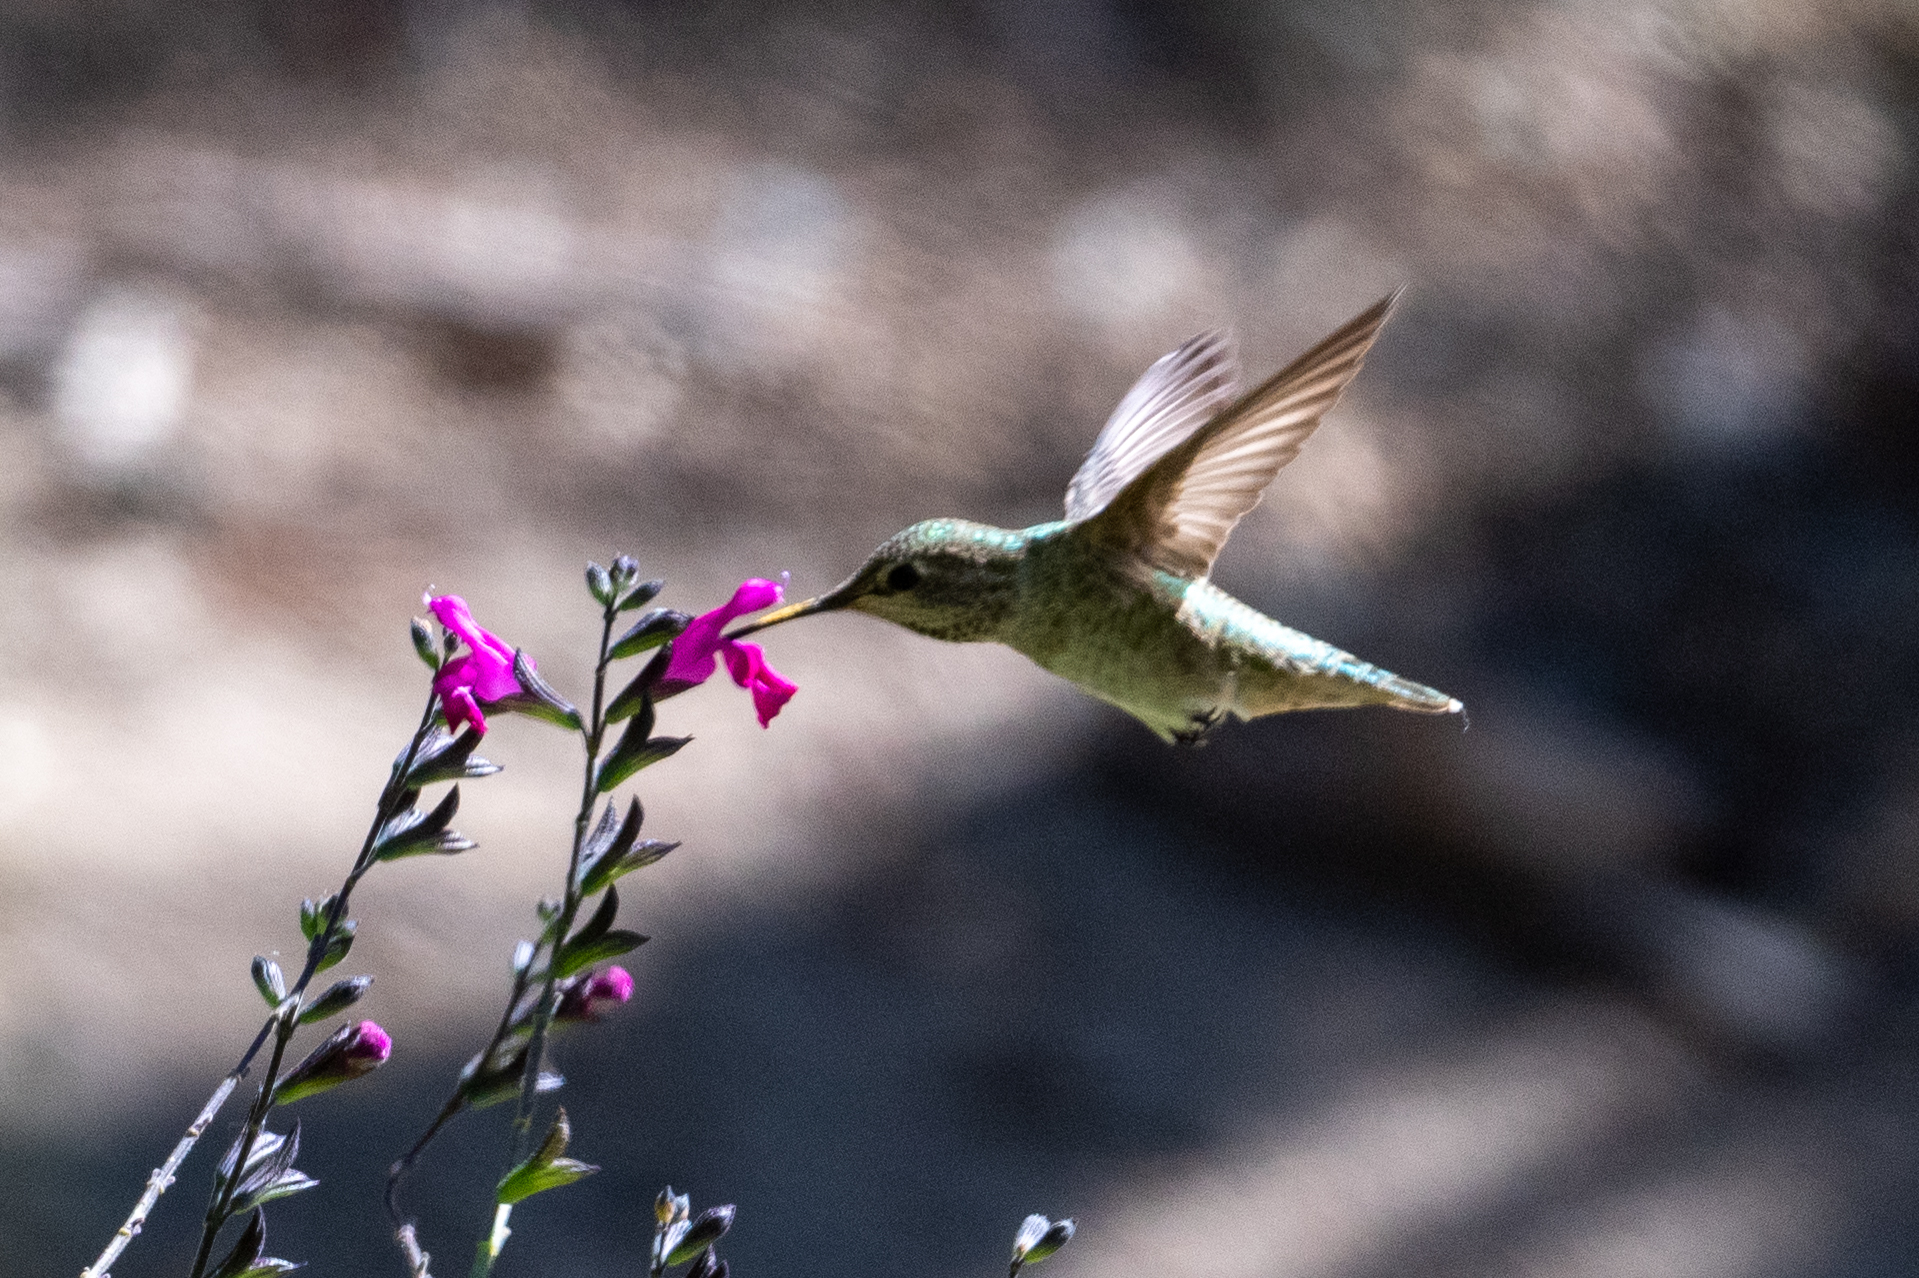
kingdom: Animalia
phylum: Chordata
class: Aves
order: Apodiformes
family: Trochilidae
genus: Calypte
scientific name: Calypte anna
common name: Anna's hummingbird
